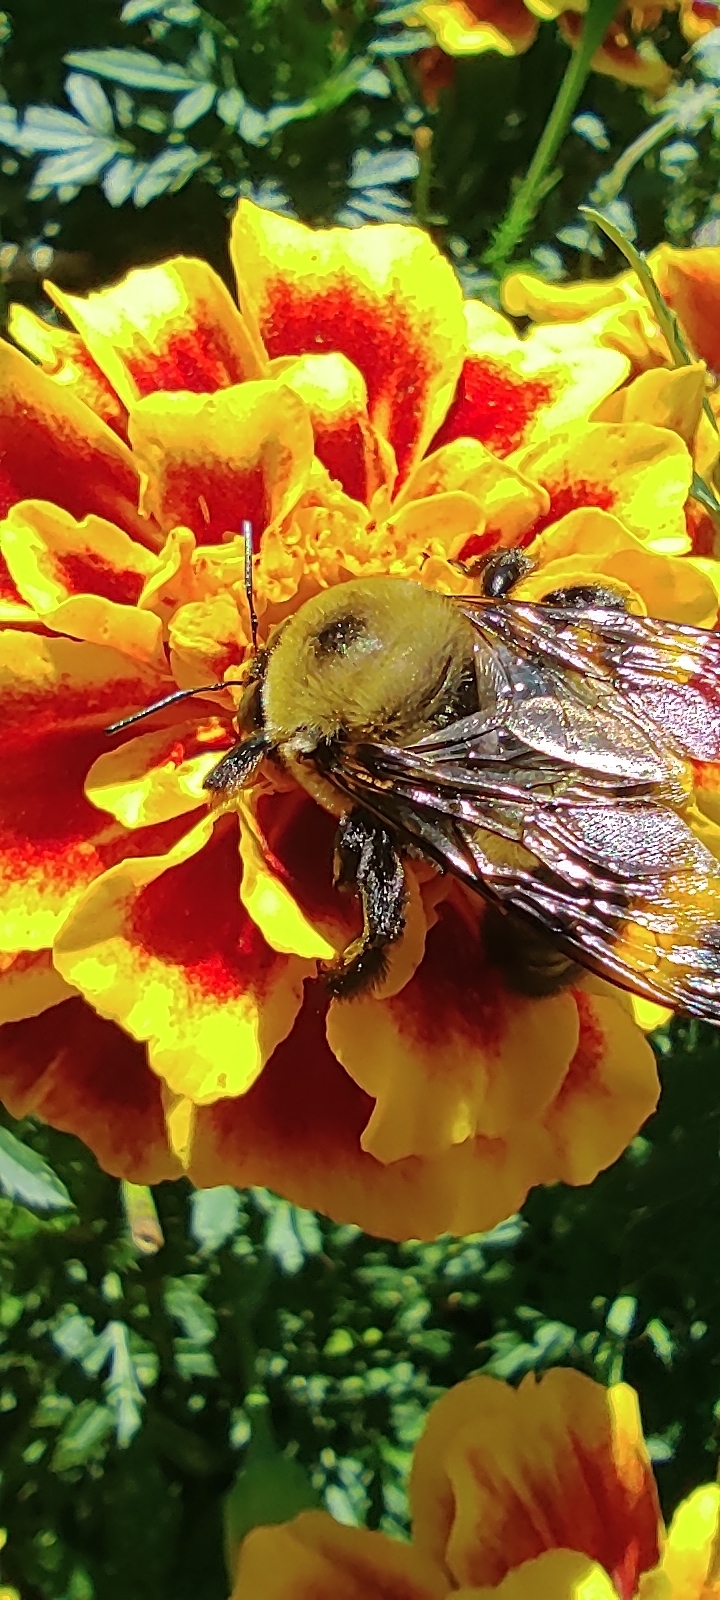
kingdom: Animalia
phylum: Arthropoda
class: Insecta
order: Hymenoptera
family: Apidae
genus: Xylocopa
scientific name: Xylocopa virginica
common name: Carpenter bee
